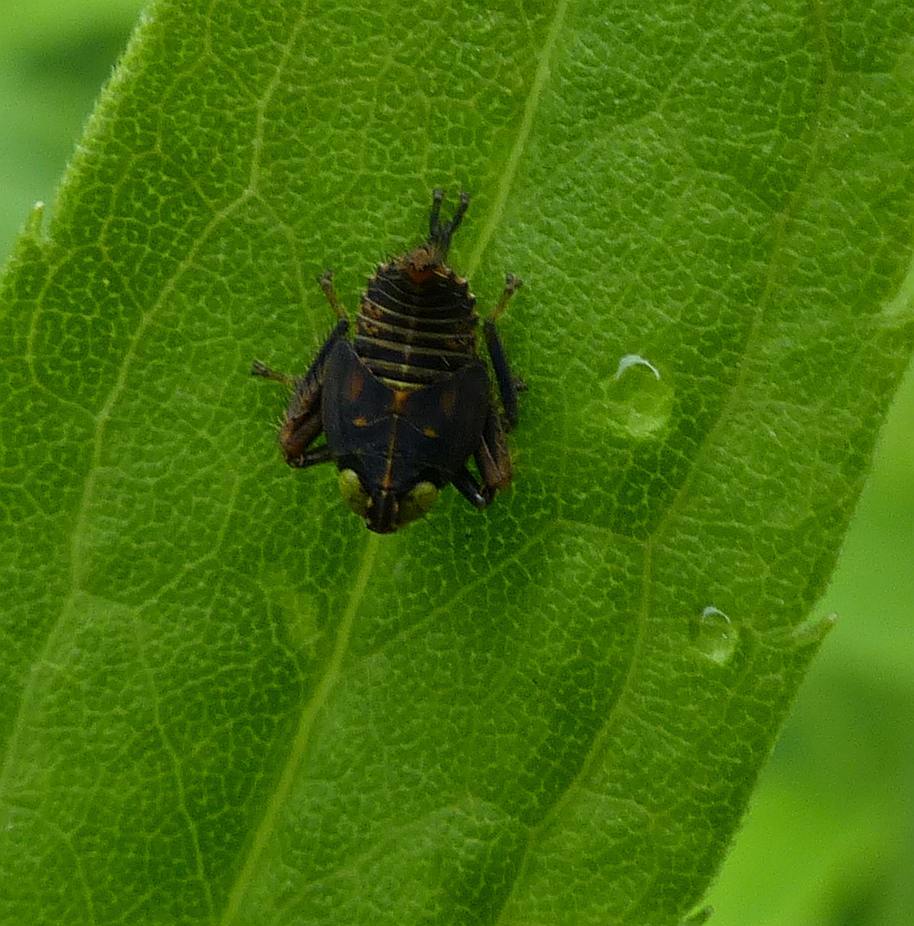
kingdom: Animalia
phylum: Arthropoda
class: Insecta
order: Hemiptera
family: Cicadellidae
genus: Jikradia
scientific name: Jikradia olitoria
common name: Coppery leafhopper
